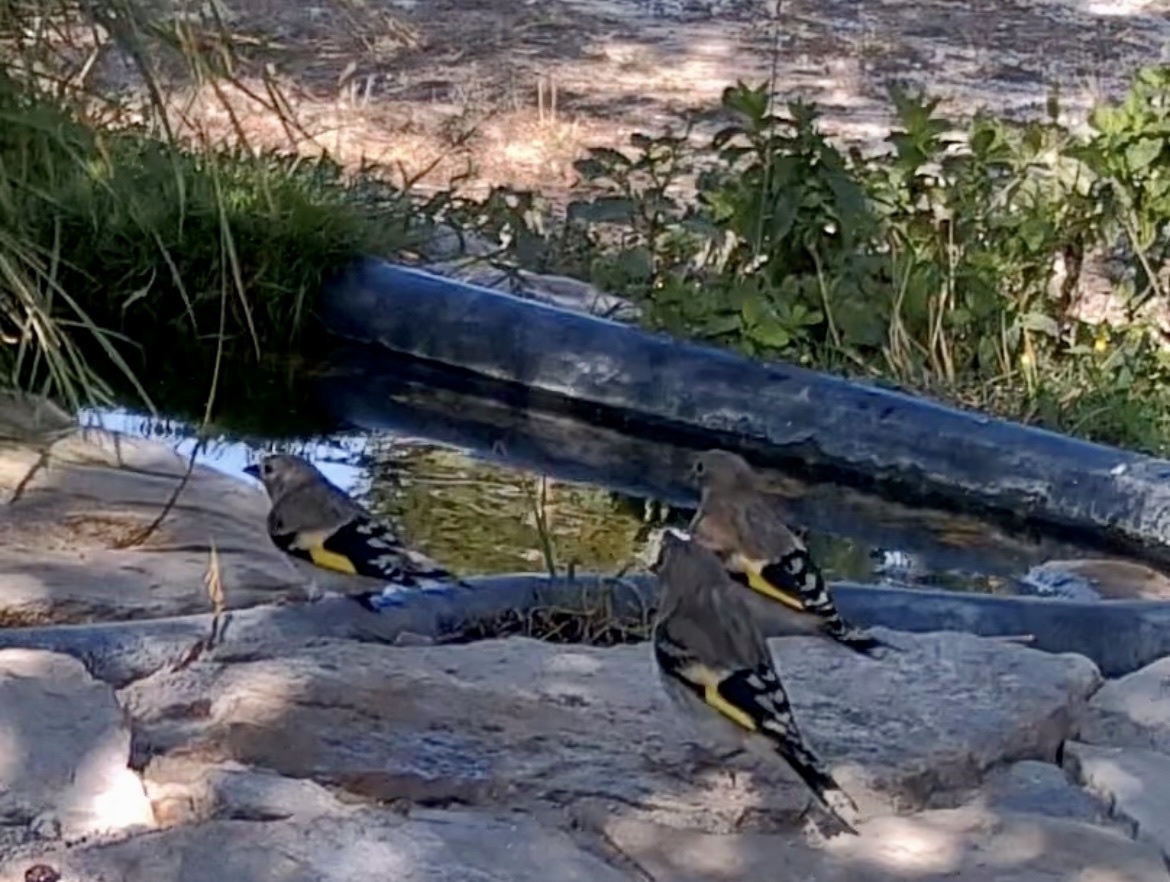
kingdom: Animalia
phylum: Chordata
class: Aves
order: Passeriformes
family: Fringillidae
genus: Carduelis
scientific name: Carduelis carduelis
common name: European goldfinch
